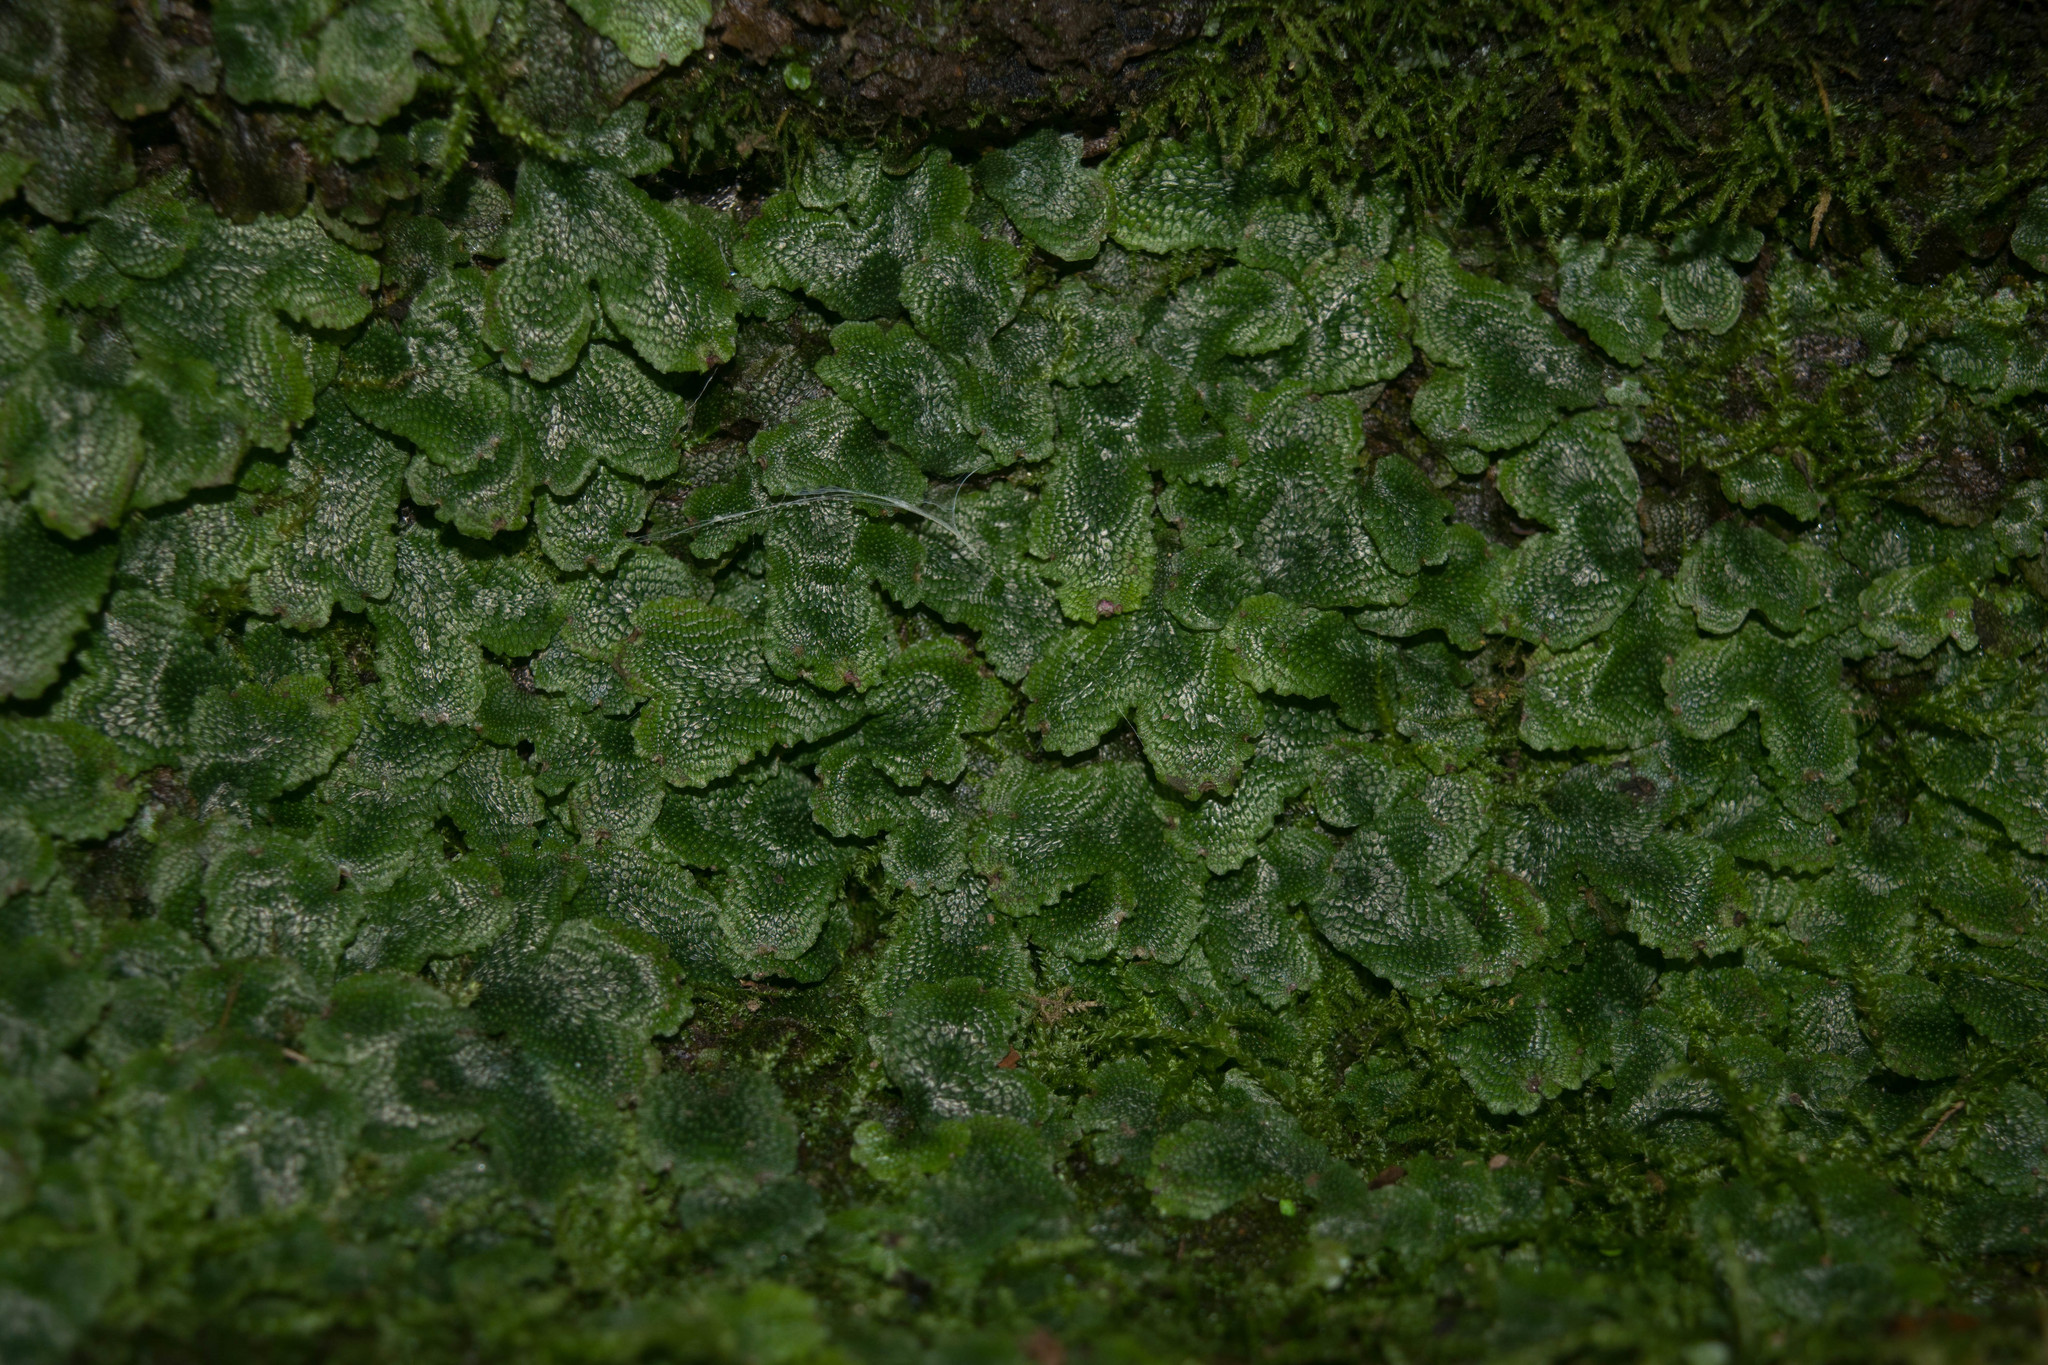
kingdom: Plantae
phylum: Marchantiophyta
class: Marchantiopsida
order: Marchantiales
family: Conocephalaceae
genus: Conocephalum
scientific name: Conocephalum salebrosum
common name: Cat-tongue liverwort
